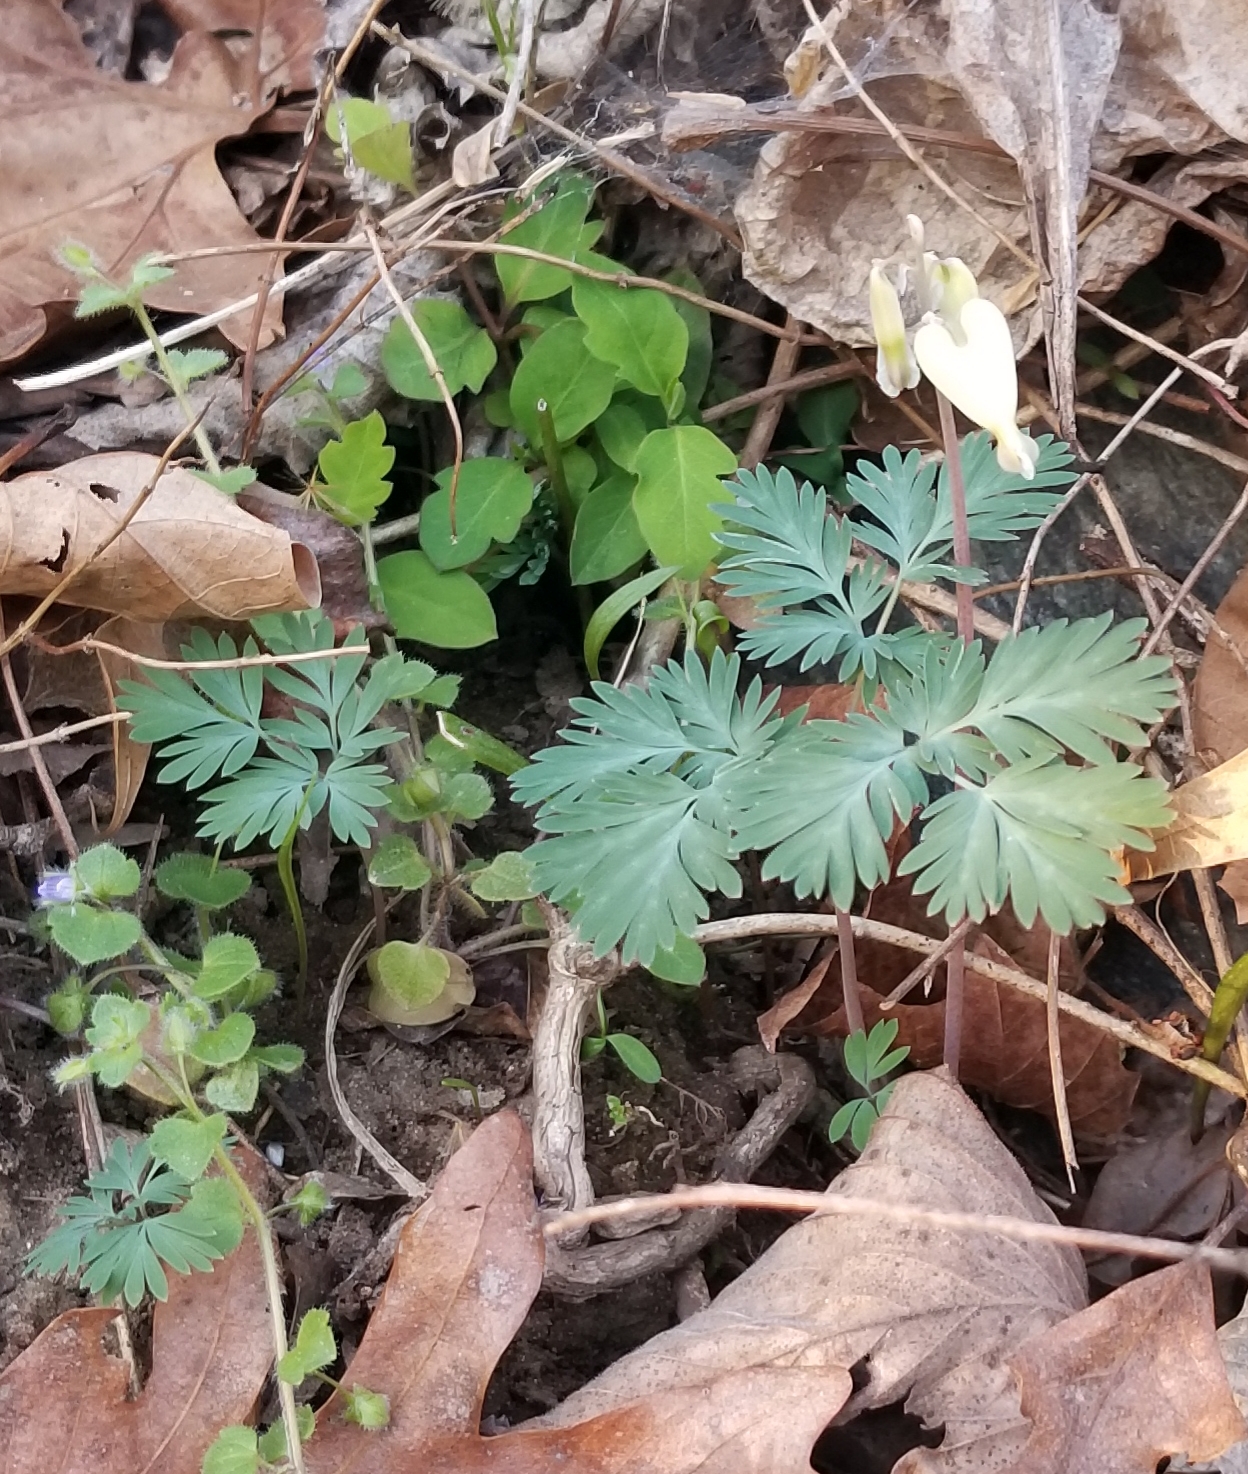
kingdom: Plantae
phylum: Tracheophyta
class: Magnoliopsida
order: Ranunculales
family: Papaveraceae
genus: Dicentra
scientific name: Dicentra canadensis
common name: Squirrel-corn
